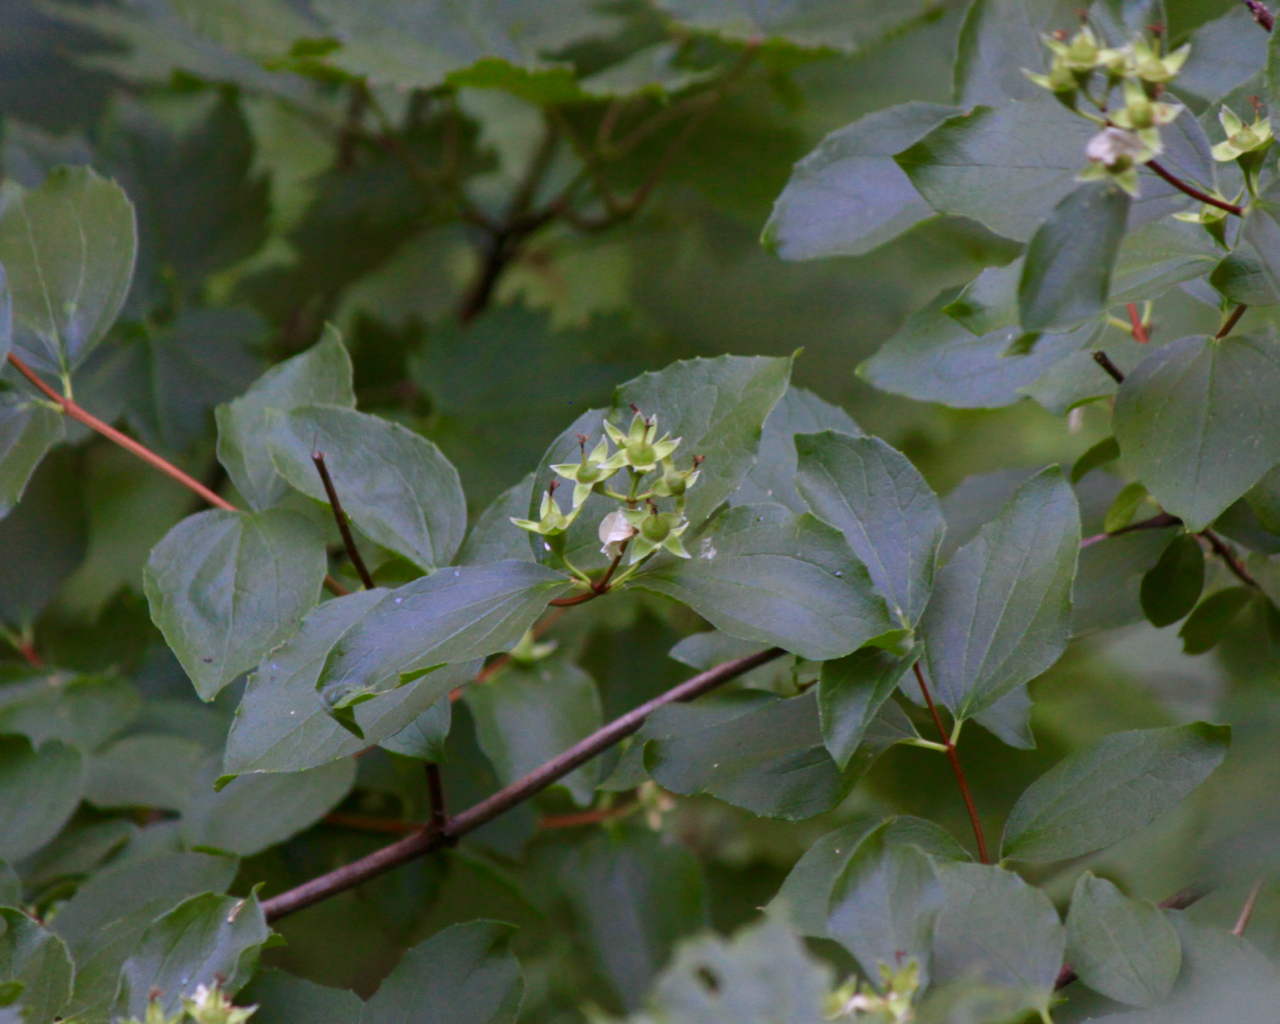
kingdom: Plantae
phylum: Tracheophyta
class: Magnoliopsida
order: Cornales
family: Hydrangeaceae
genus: Philadelphus
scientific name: Philadelphus lewisii
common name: Lewis's mock orange
